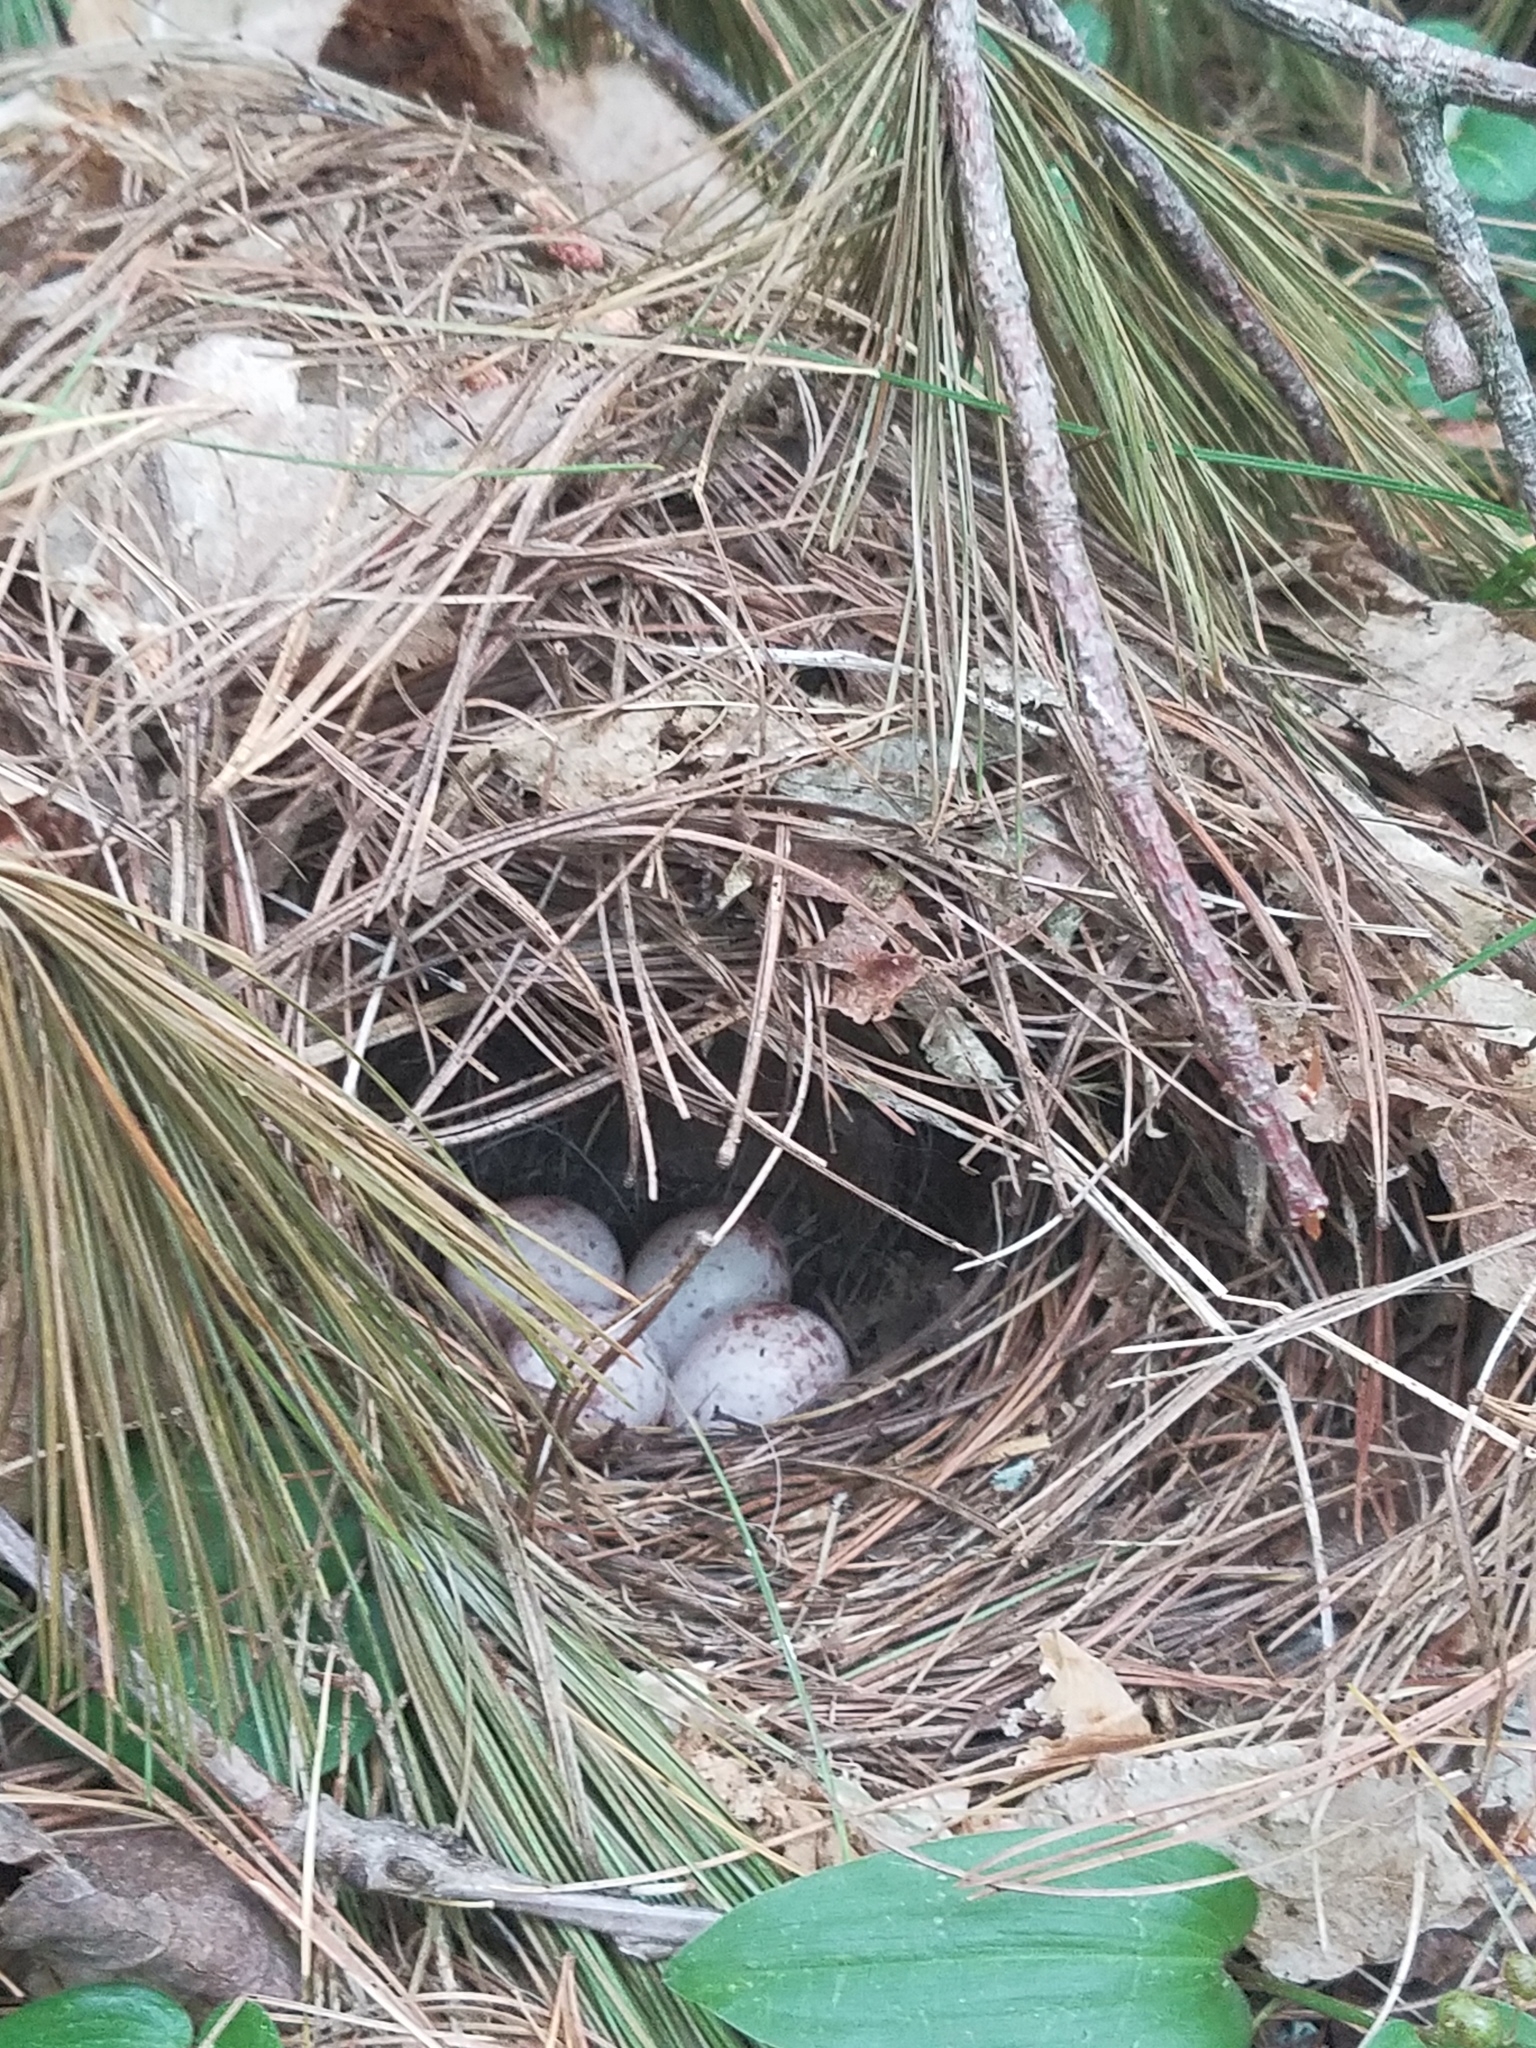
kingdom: Animalia
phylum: Chordata
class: Aves
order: Passeriformes
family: Parulidae
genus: Seiurus
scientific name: Seiurus aurocapilla
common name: Ovenbird
